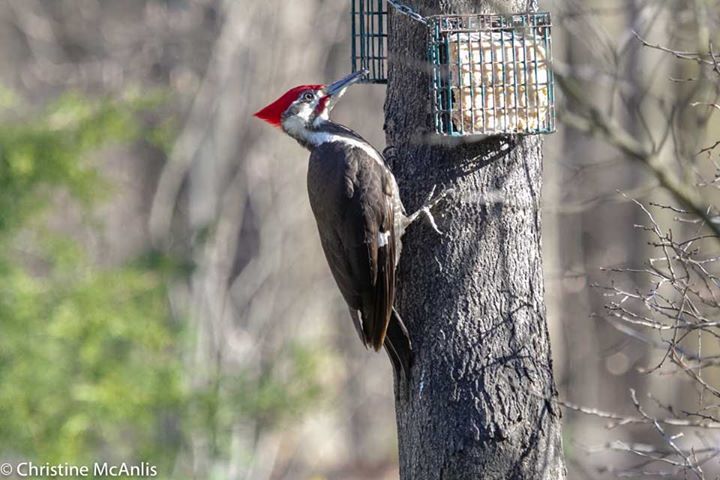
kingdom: Animalia
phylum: Chordata
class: Aves
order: Piciformes
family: Picidae
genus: Dryocopus
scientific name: Dryocopus pileatus
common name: Pileated woodpecker
